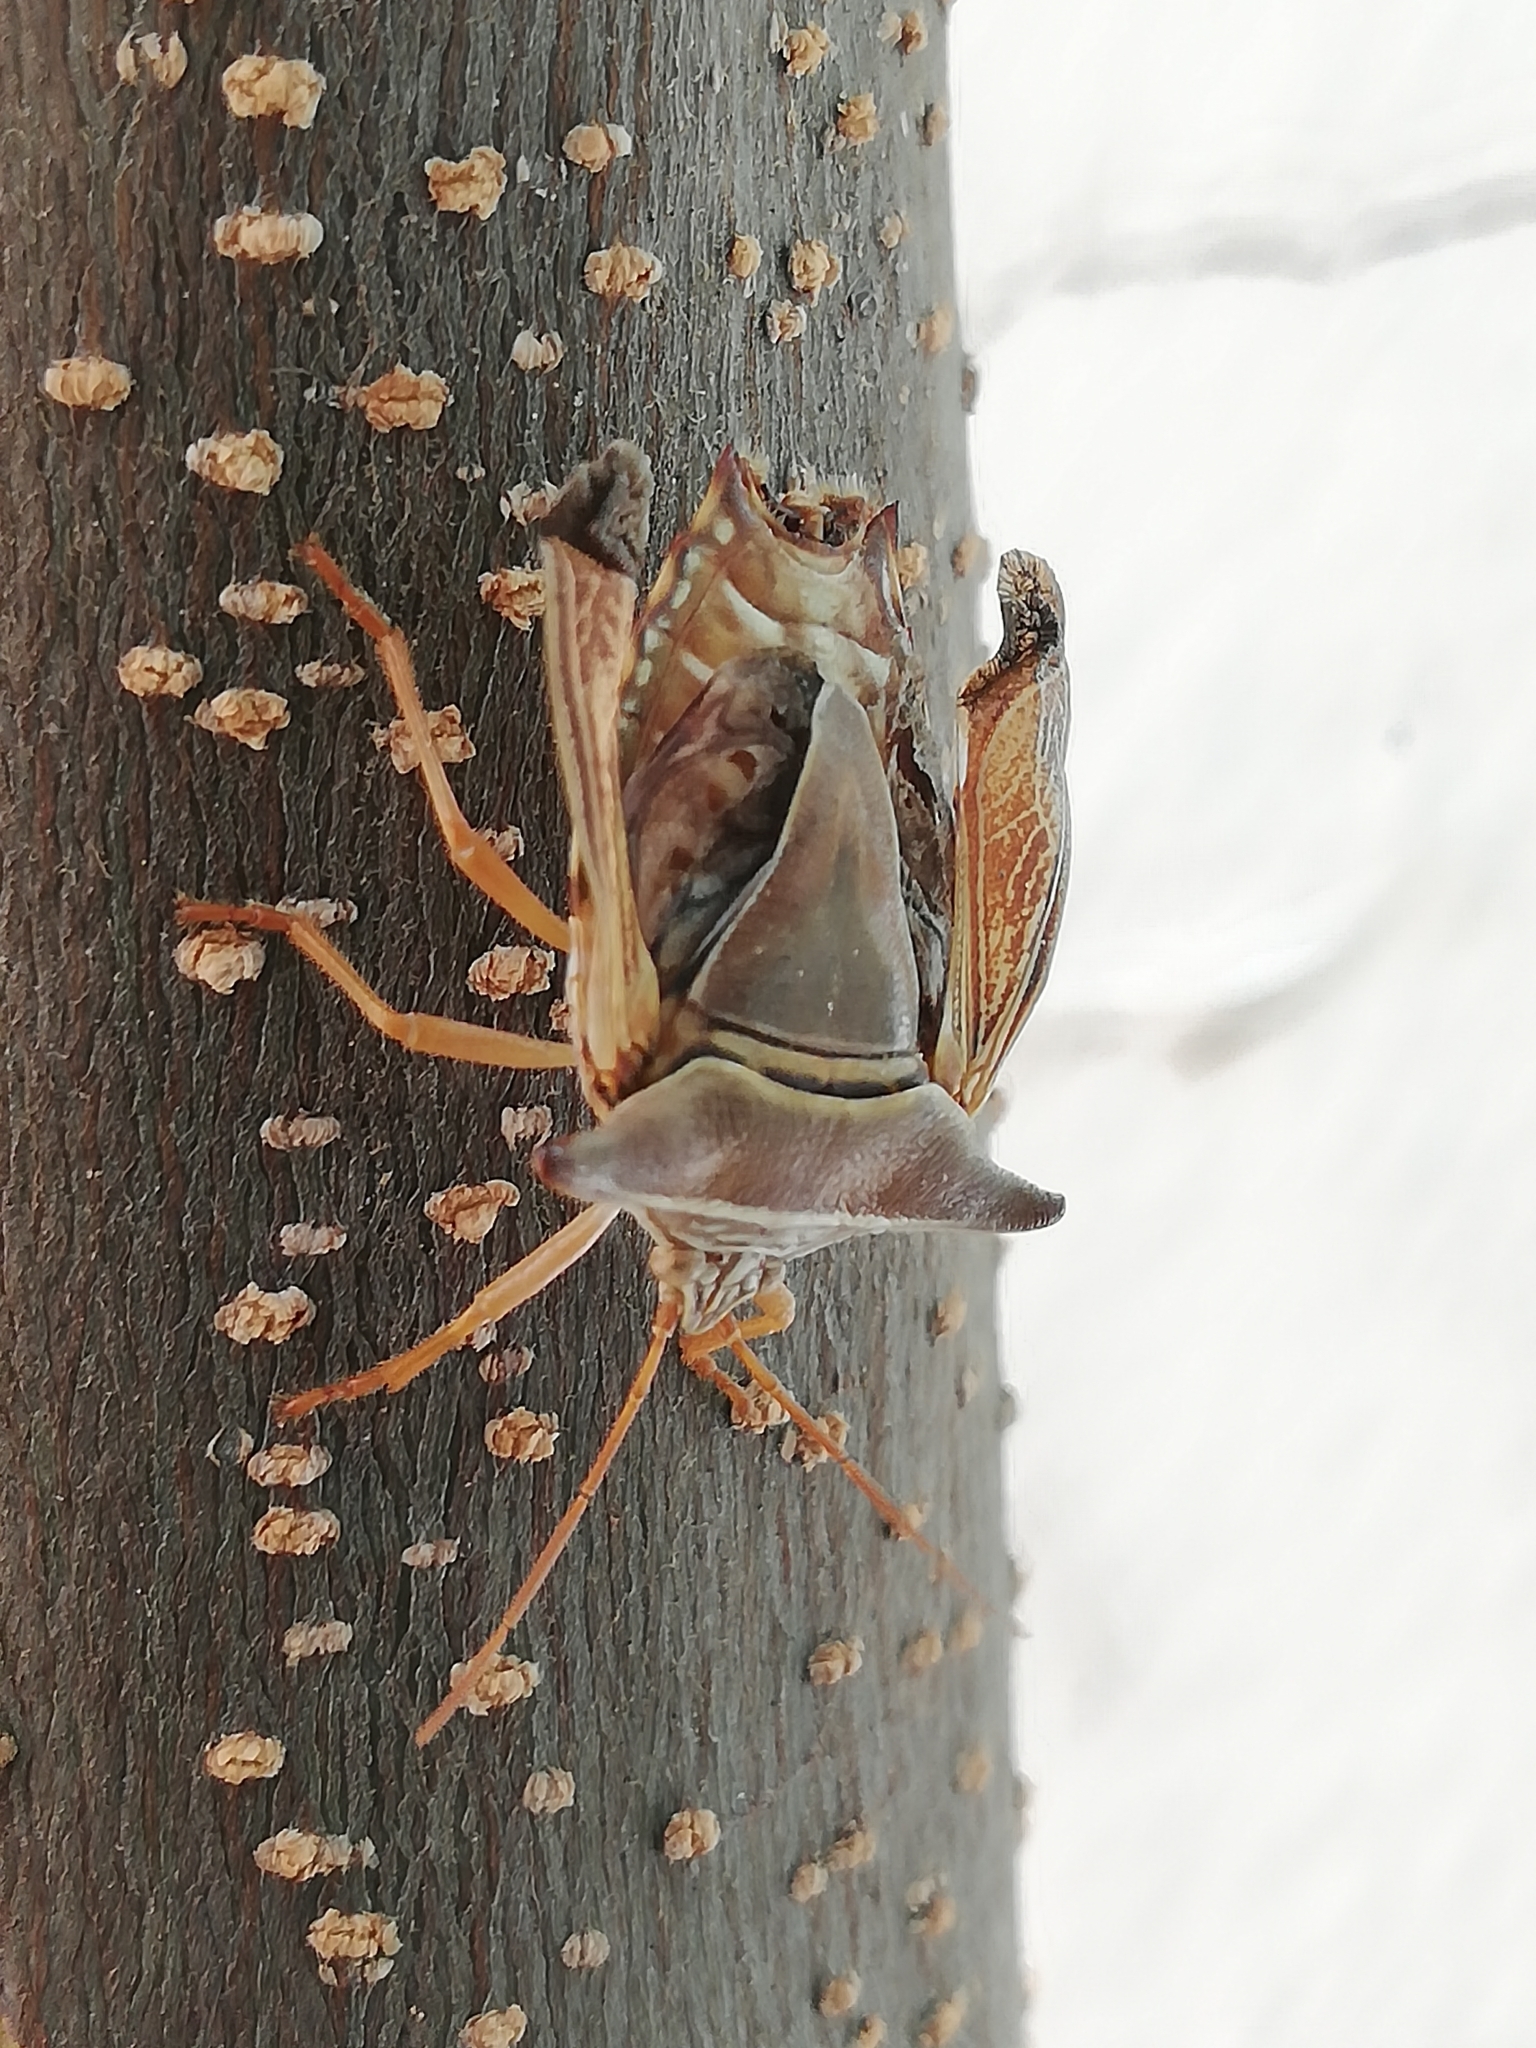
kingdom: Animalia
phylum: Arthropoda
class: Insecta
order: Hemiptera
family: Pentatomidae
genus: Edessa
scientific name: Edessa reticulata
